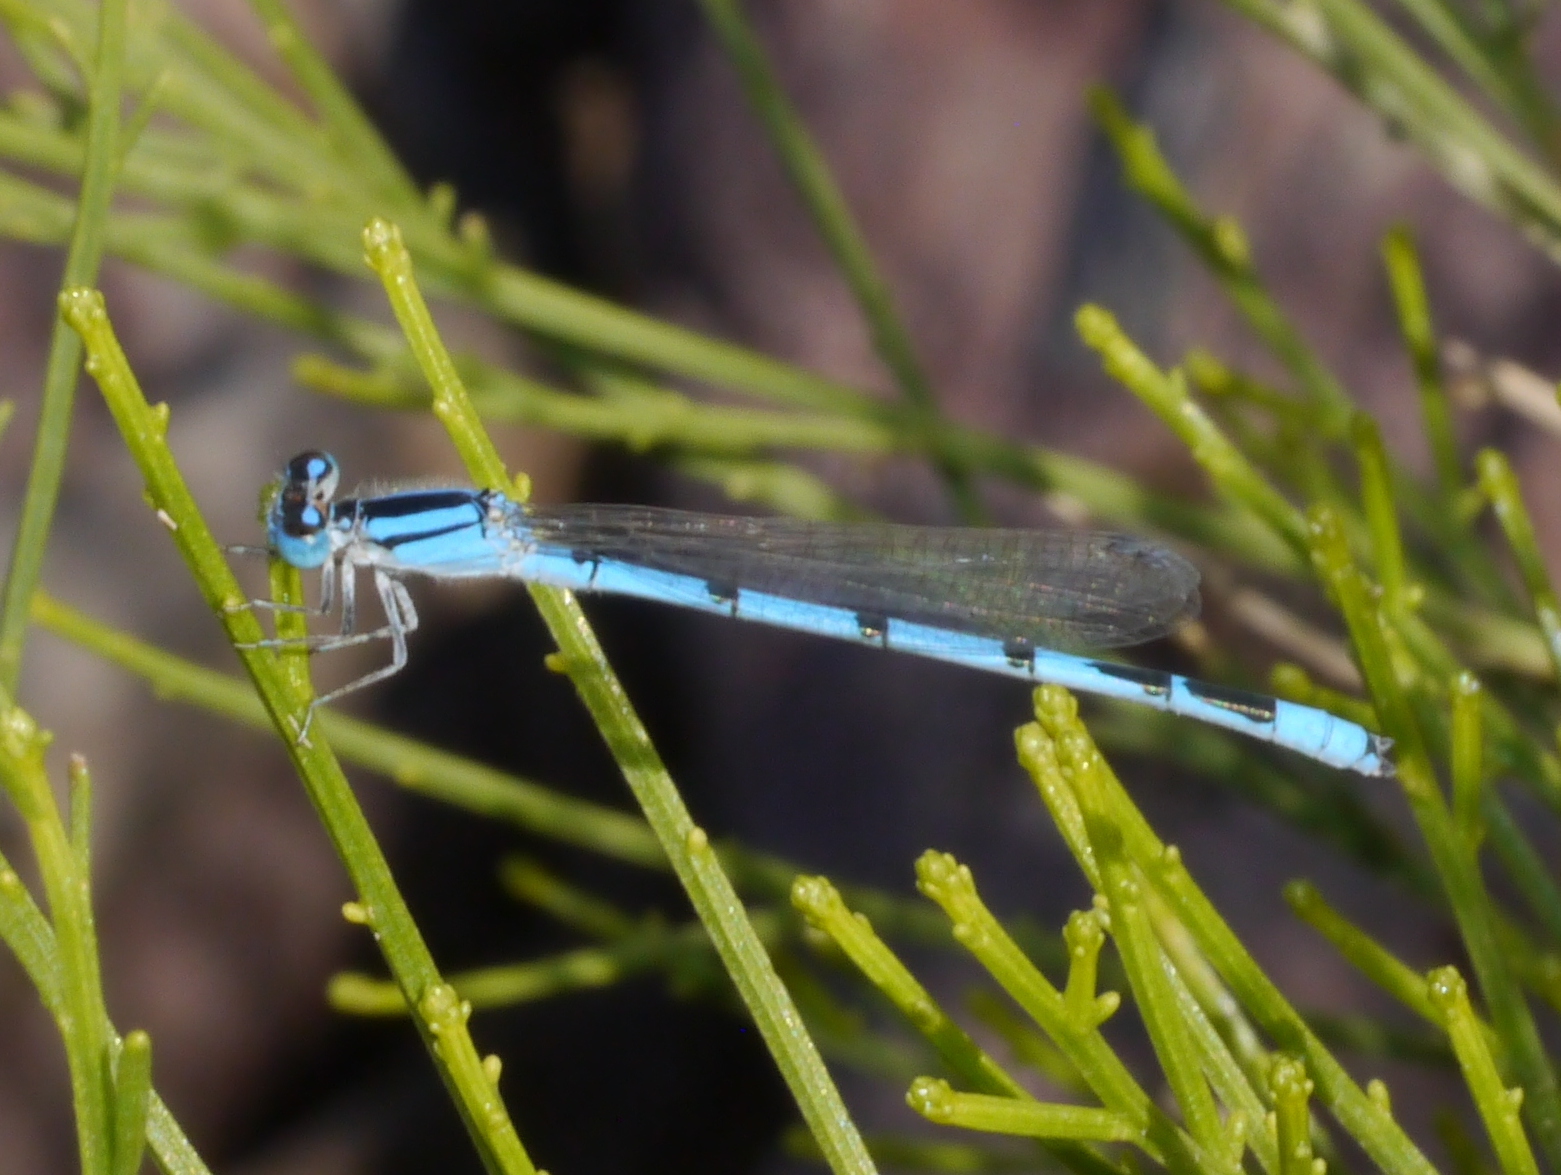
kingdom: Animalia
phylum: Arthropoda
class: Insecta
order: Odonata
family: Coenagrionidae
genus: Enallagma
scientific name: Enallagma civile
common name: Damselfly
